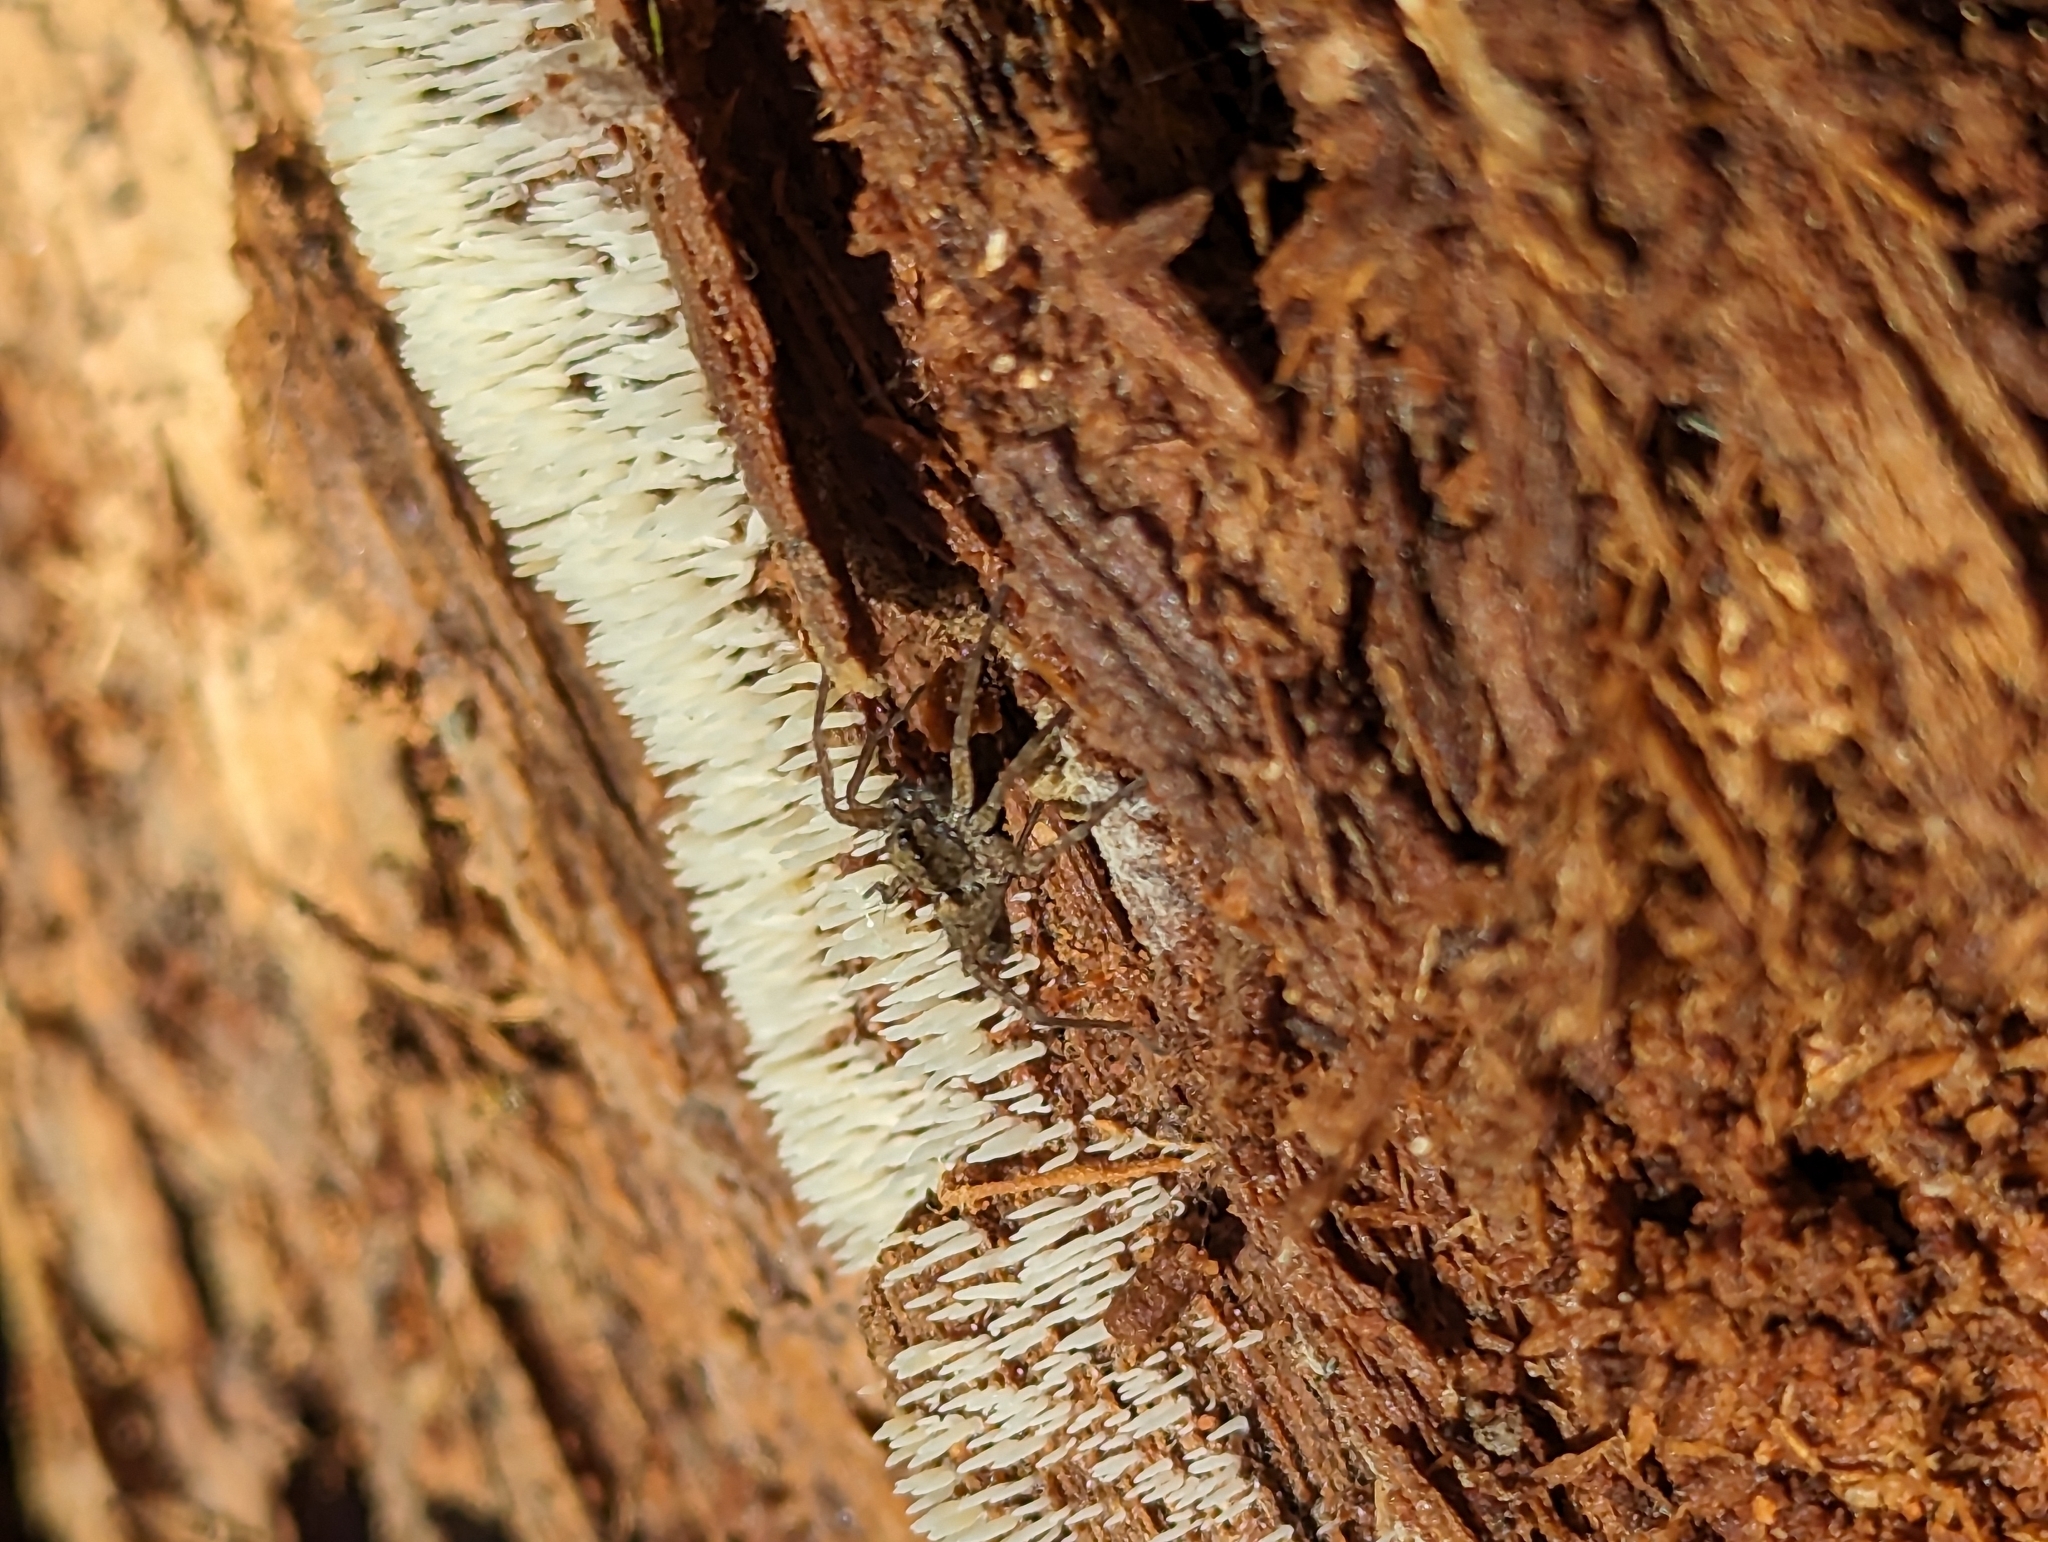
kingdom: Fungi
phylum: Basidiomycota
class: Agaricomycetes
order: Agaricales
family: Clavariaceae
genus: Mucronella
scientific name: Mucronella calva
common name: Swarming spine
